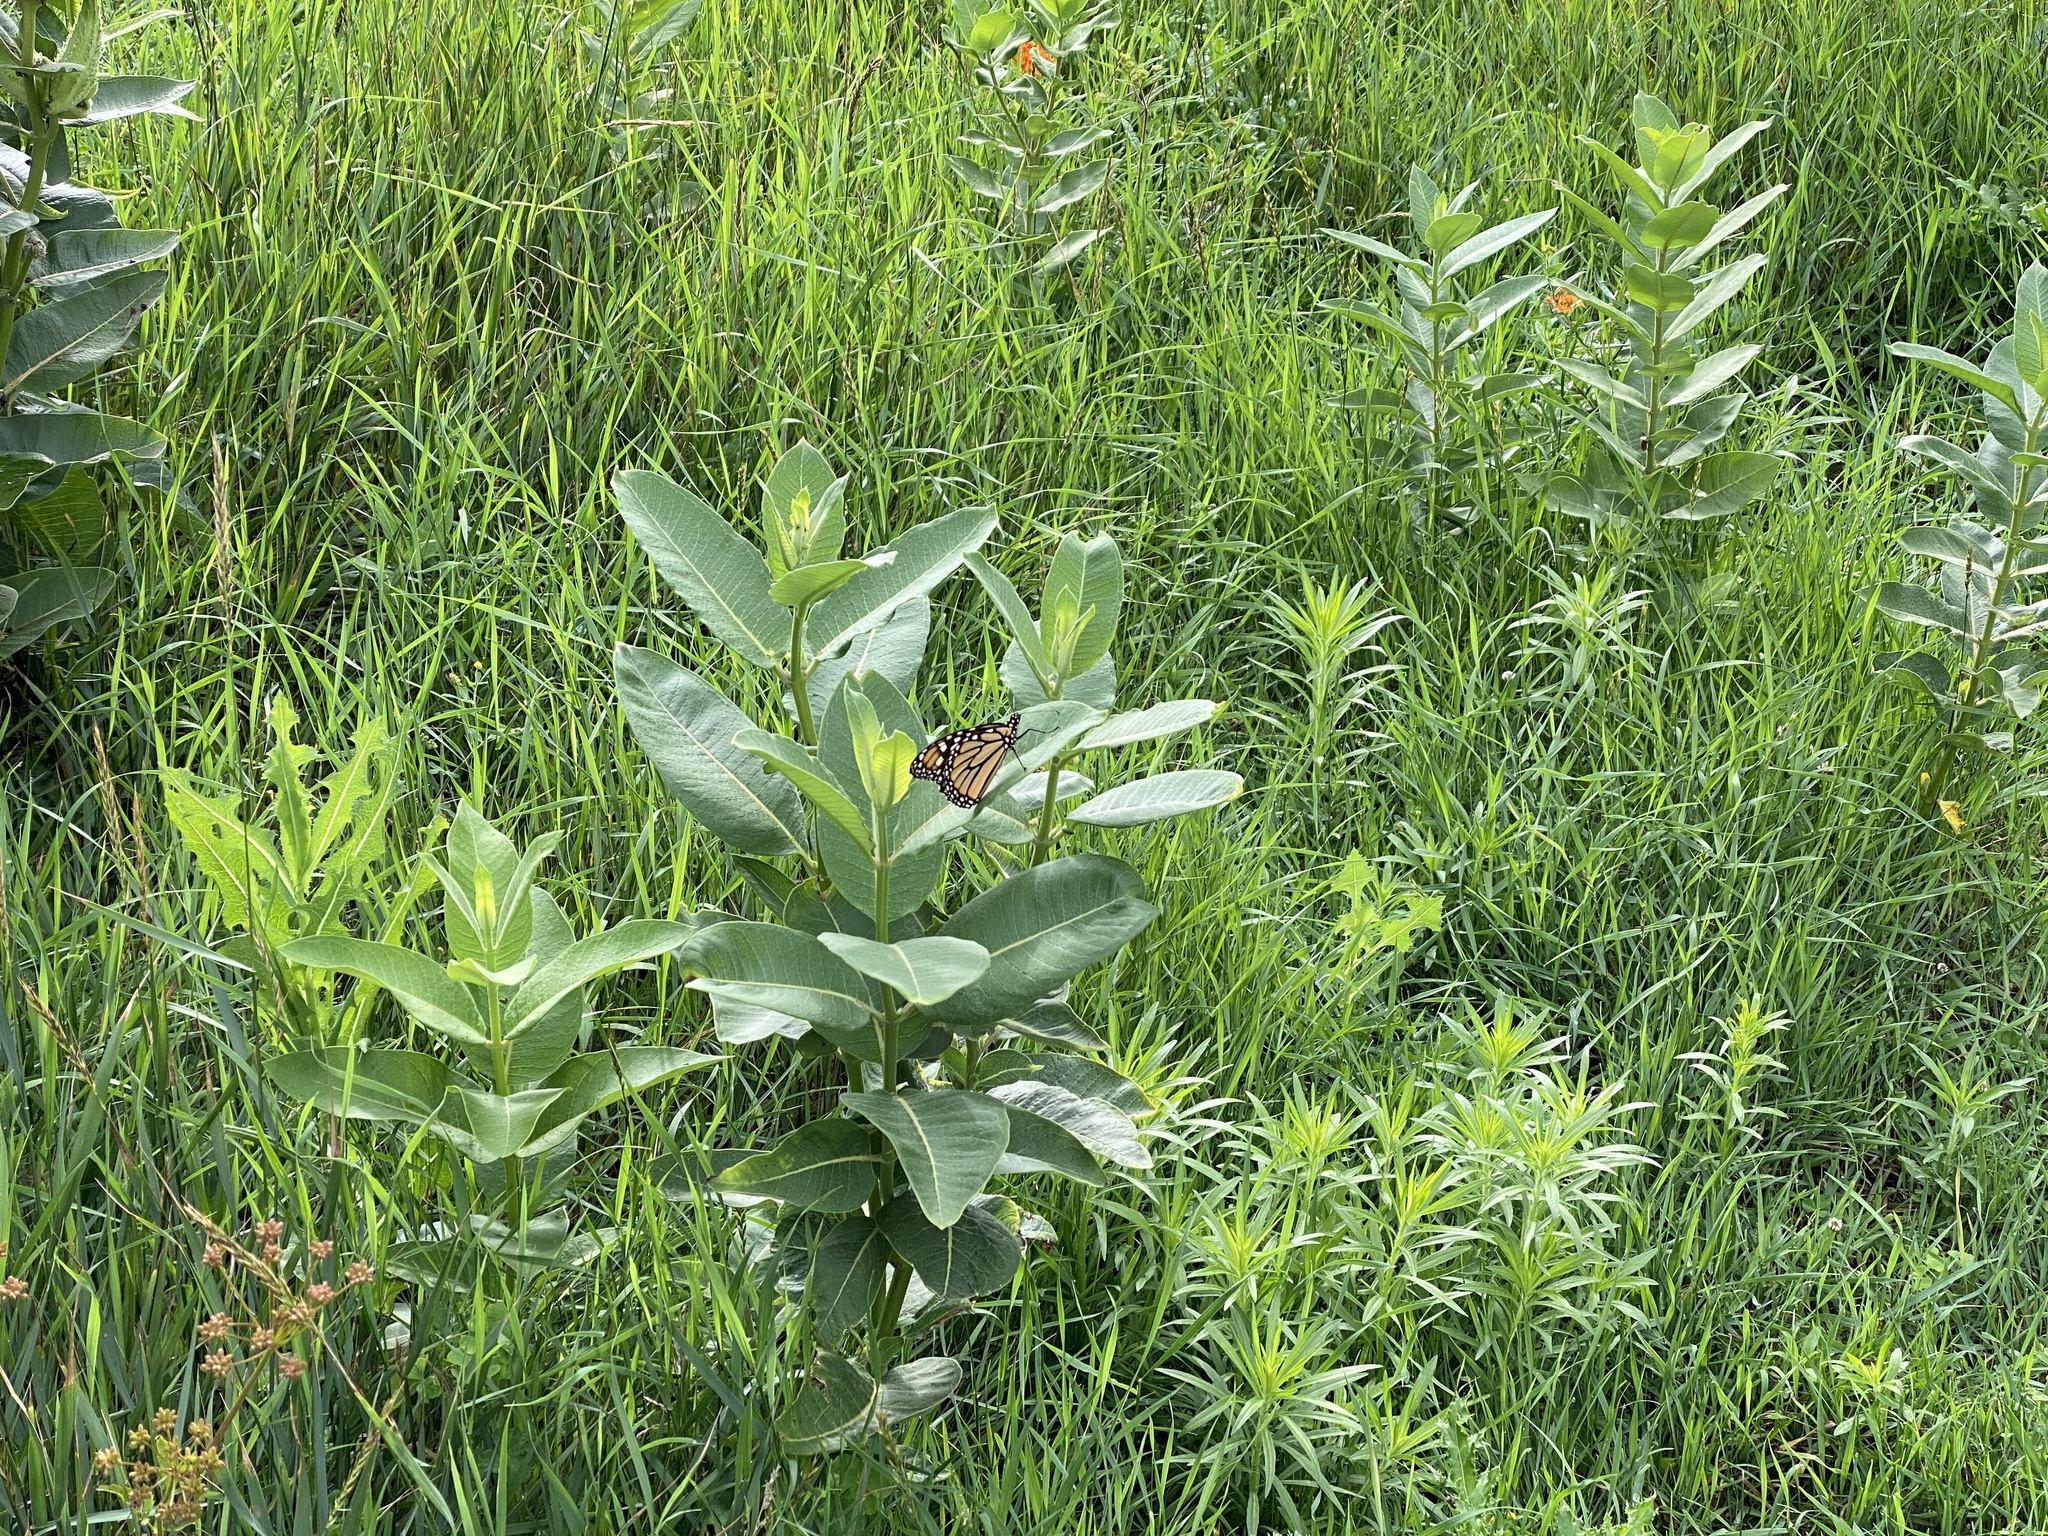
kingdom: Animalia
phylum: Arthropoda
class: Insecta
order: Lepidoptera
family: Nymphalidae
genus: Danaus
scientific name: Danaus plexippus
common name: Monarch
